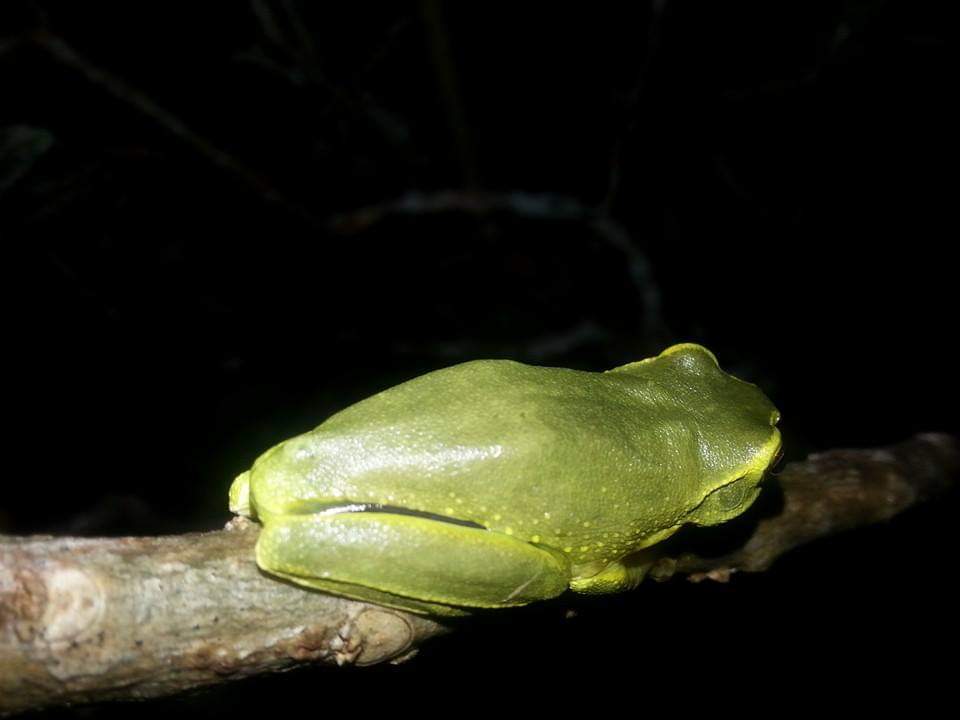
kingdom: Animalia
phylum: Chordata
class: Amphibia
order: Anura
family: Pelodryadidae
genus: Ranoidea
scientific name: Ranoidea gracilenta
